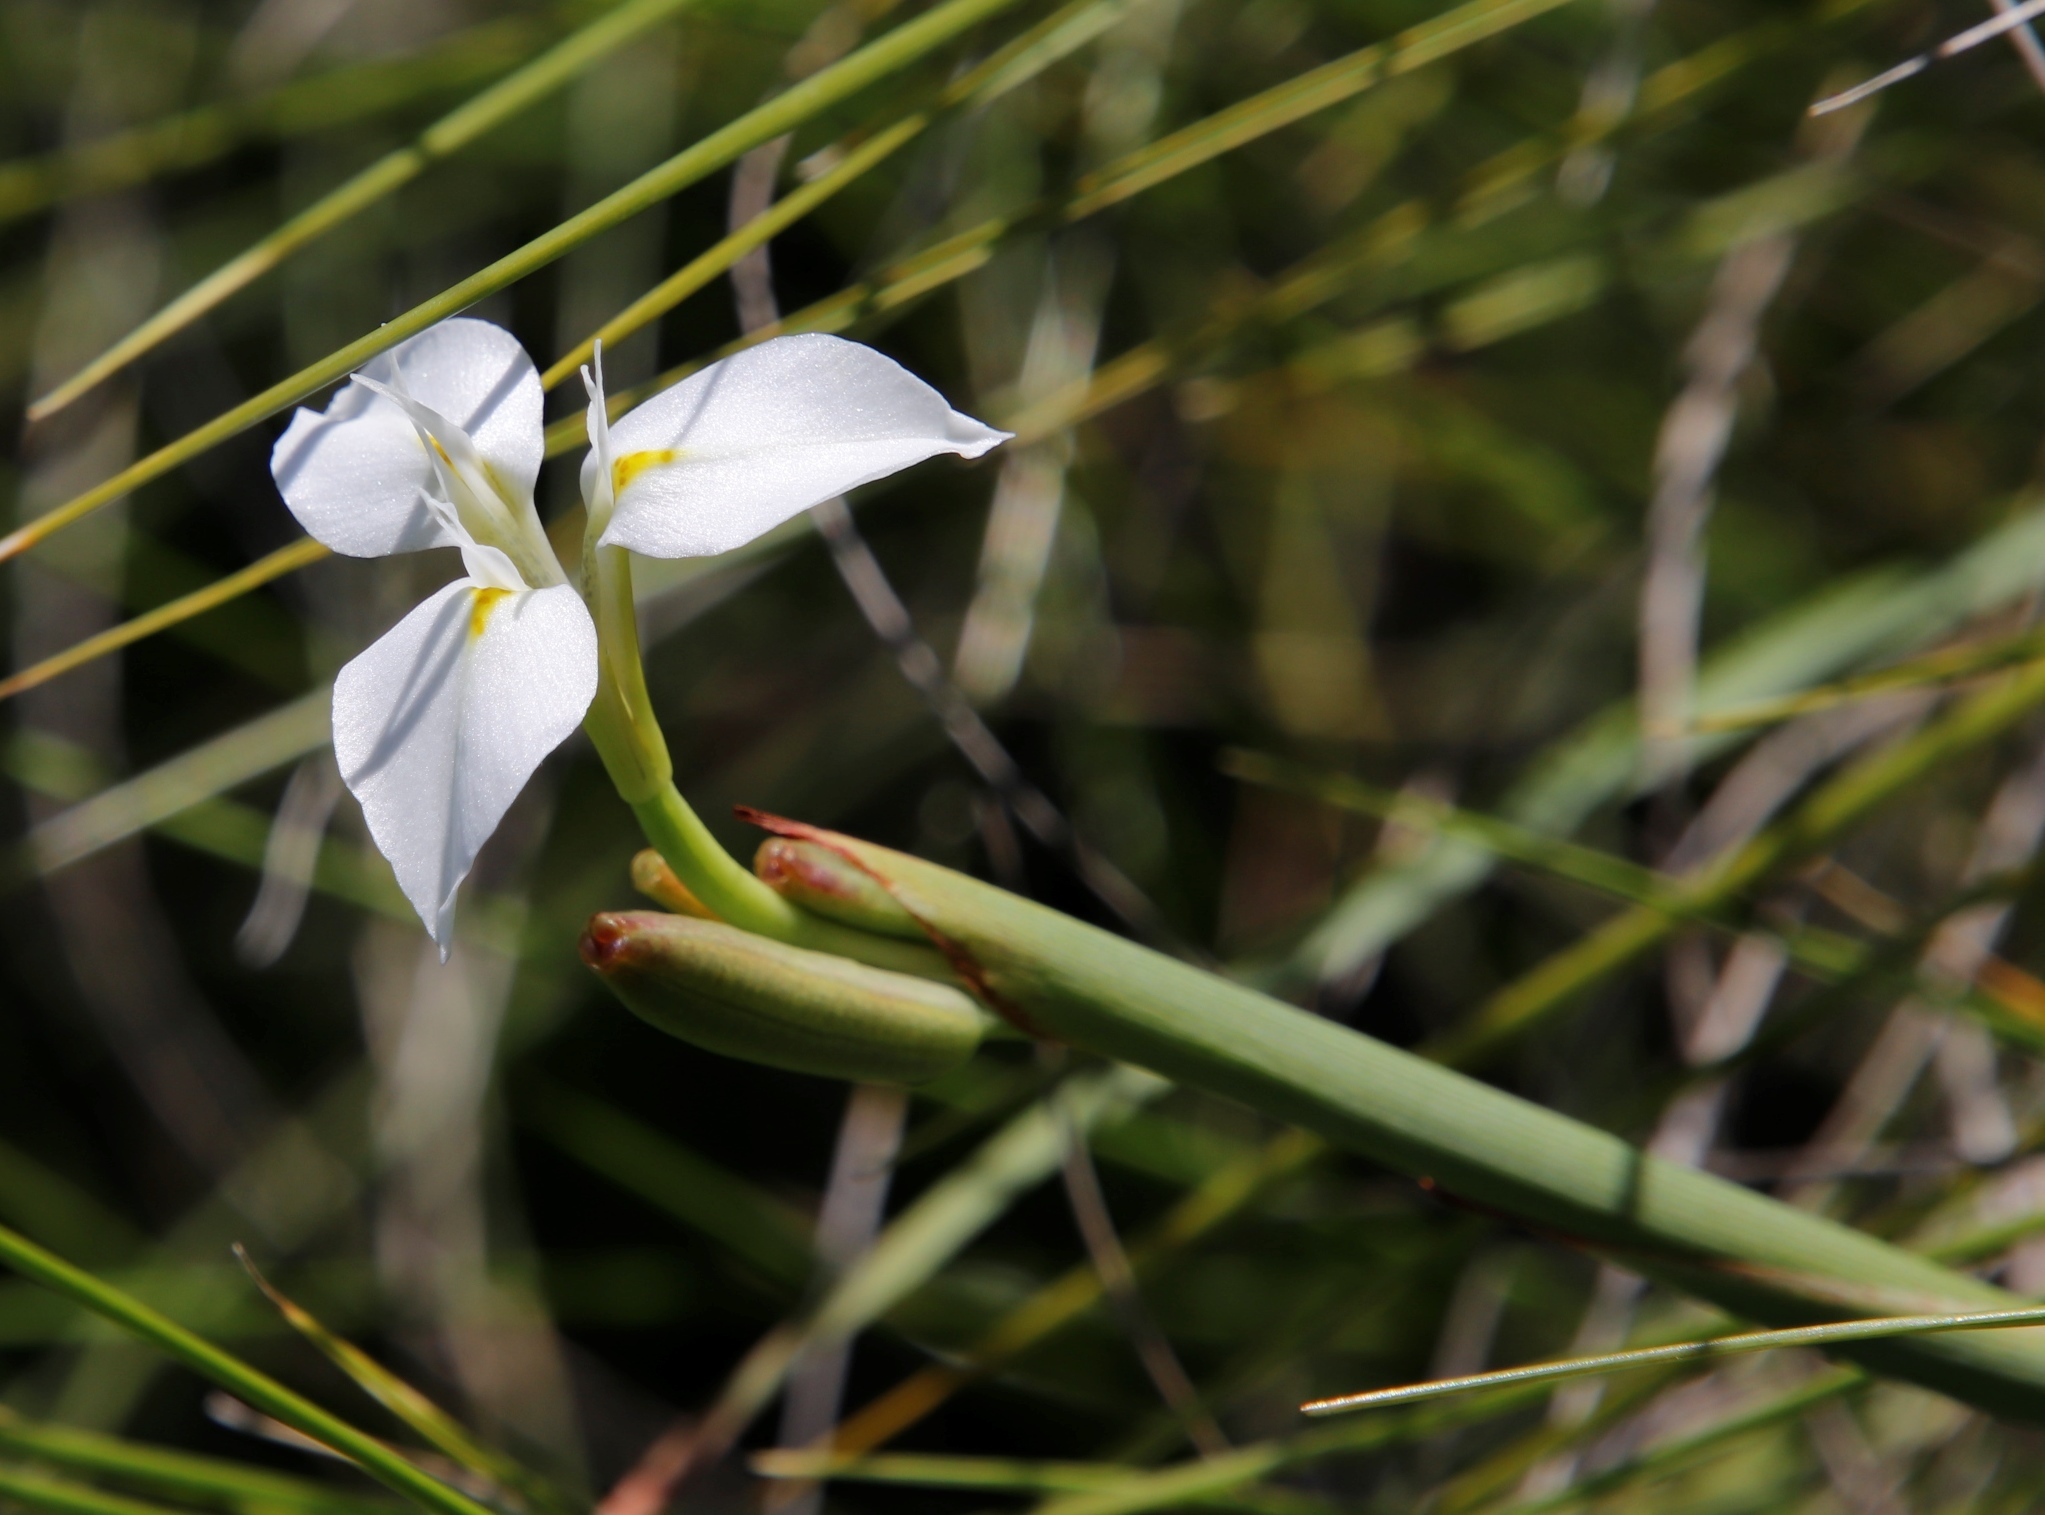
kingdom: Plantae
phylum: Tracheophyta
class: Liliopsida
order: Asparagales
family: Iridaceae
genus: Moraea
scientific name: Moraea albicuspa
